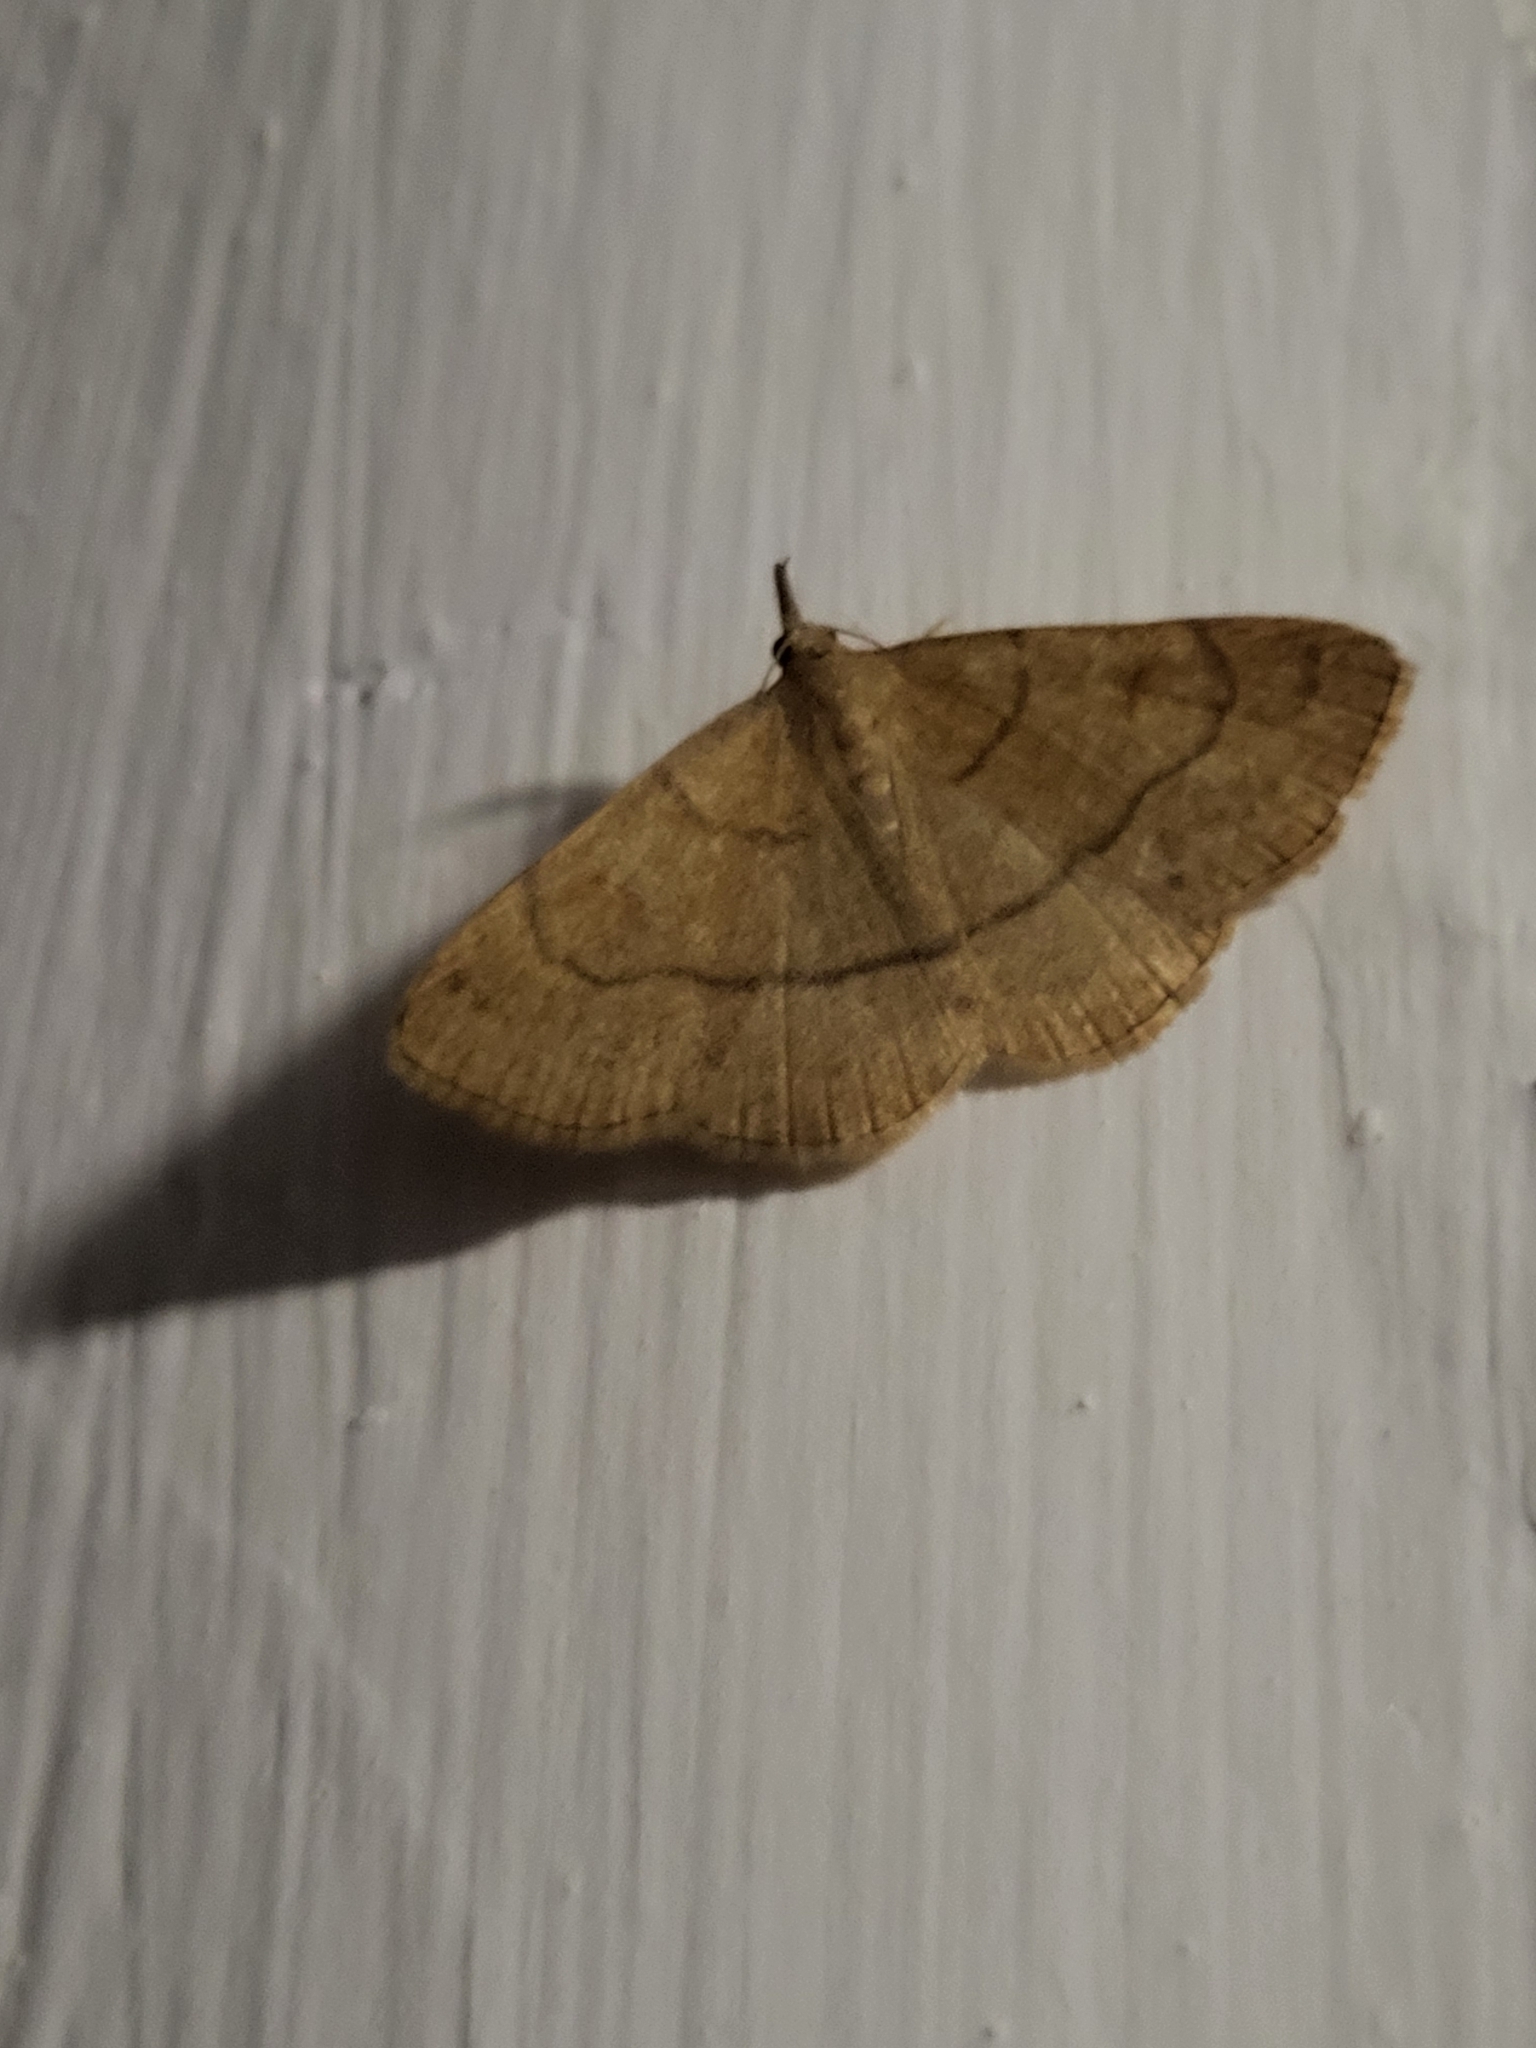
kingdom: Animalia
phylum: Arthropoda
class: Insecta
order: Lepidoptera
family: Erebidae
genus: Paracolax
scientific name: Paracolax tristalis
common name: Clay fan-foot
